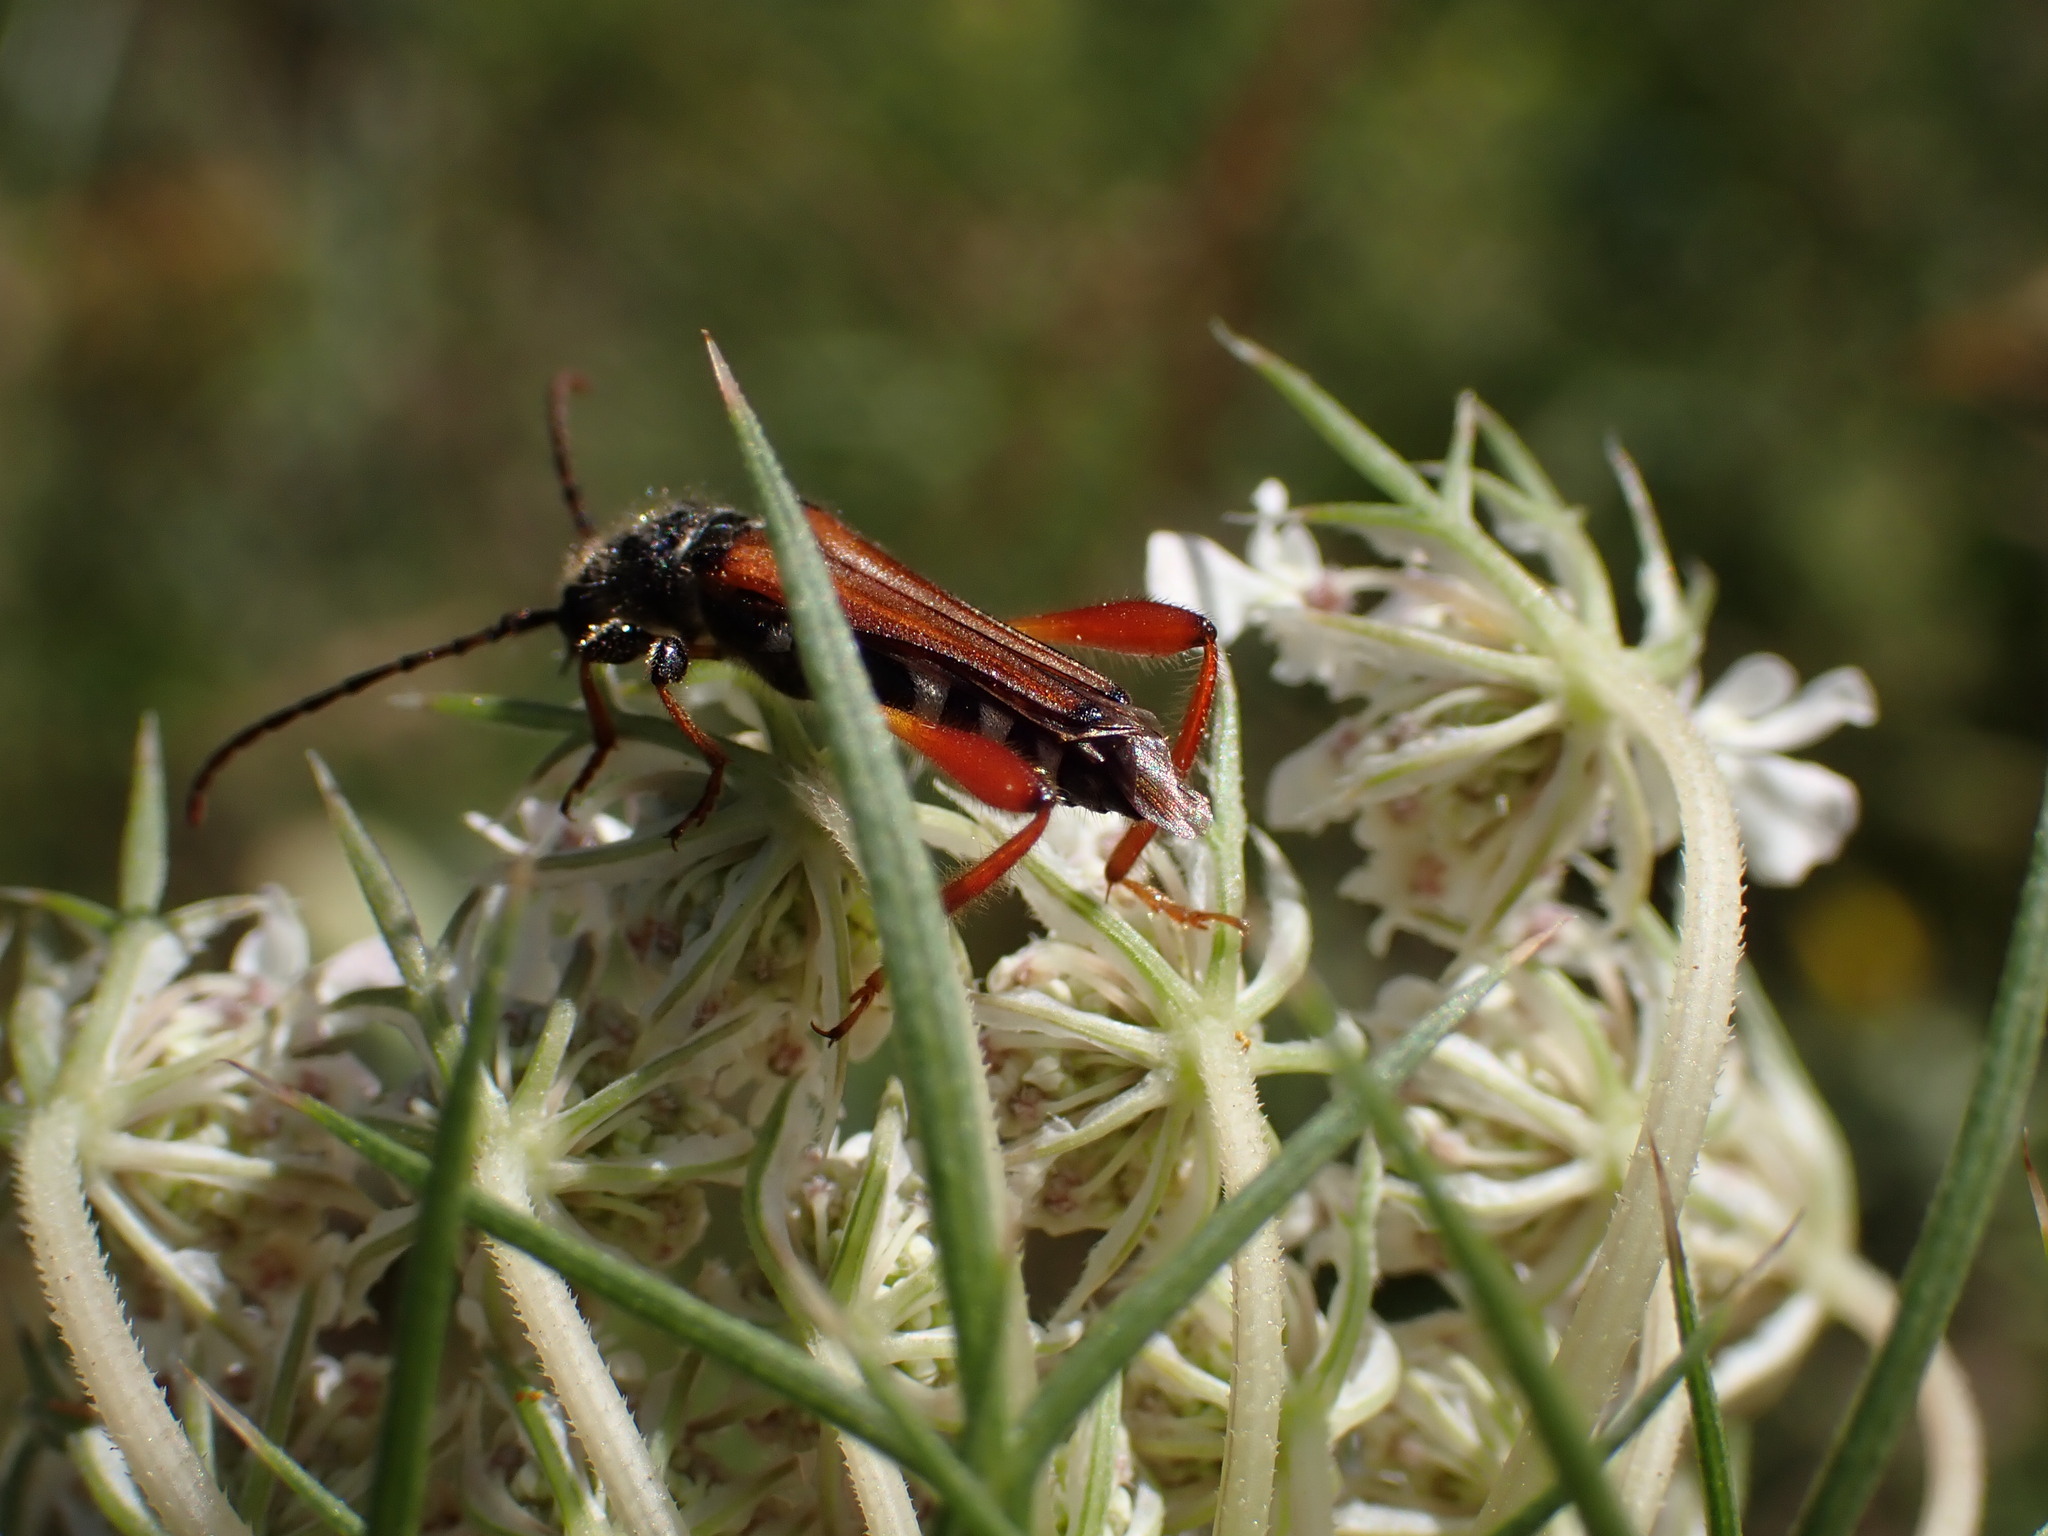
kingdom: Animalia
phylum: Arthropoda
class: Insecta
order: Coleoptera
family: Cerambycidae
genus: Stenopterus
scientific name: Stenopterus rufus
